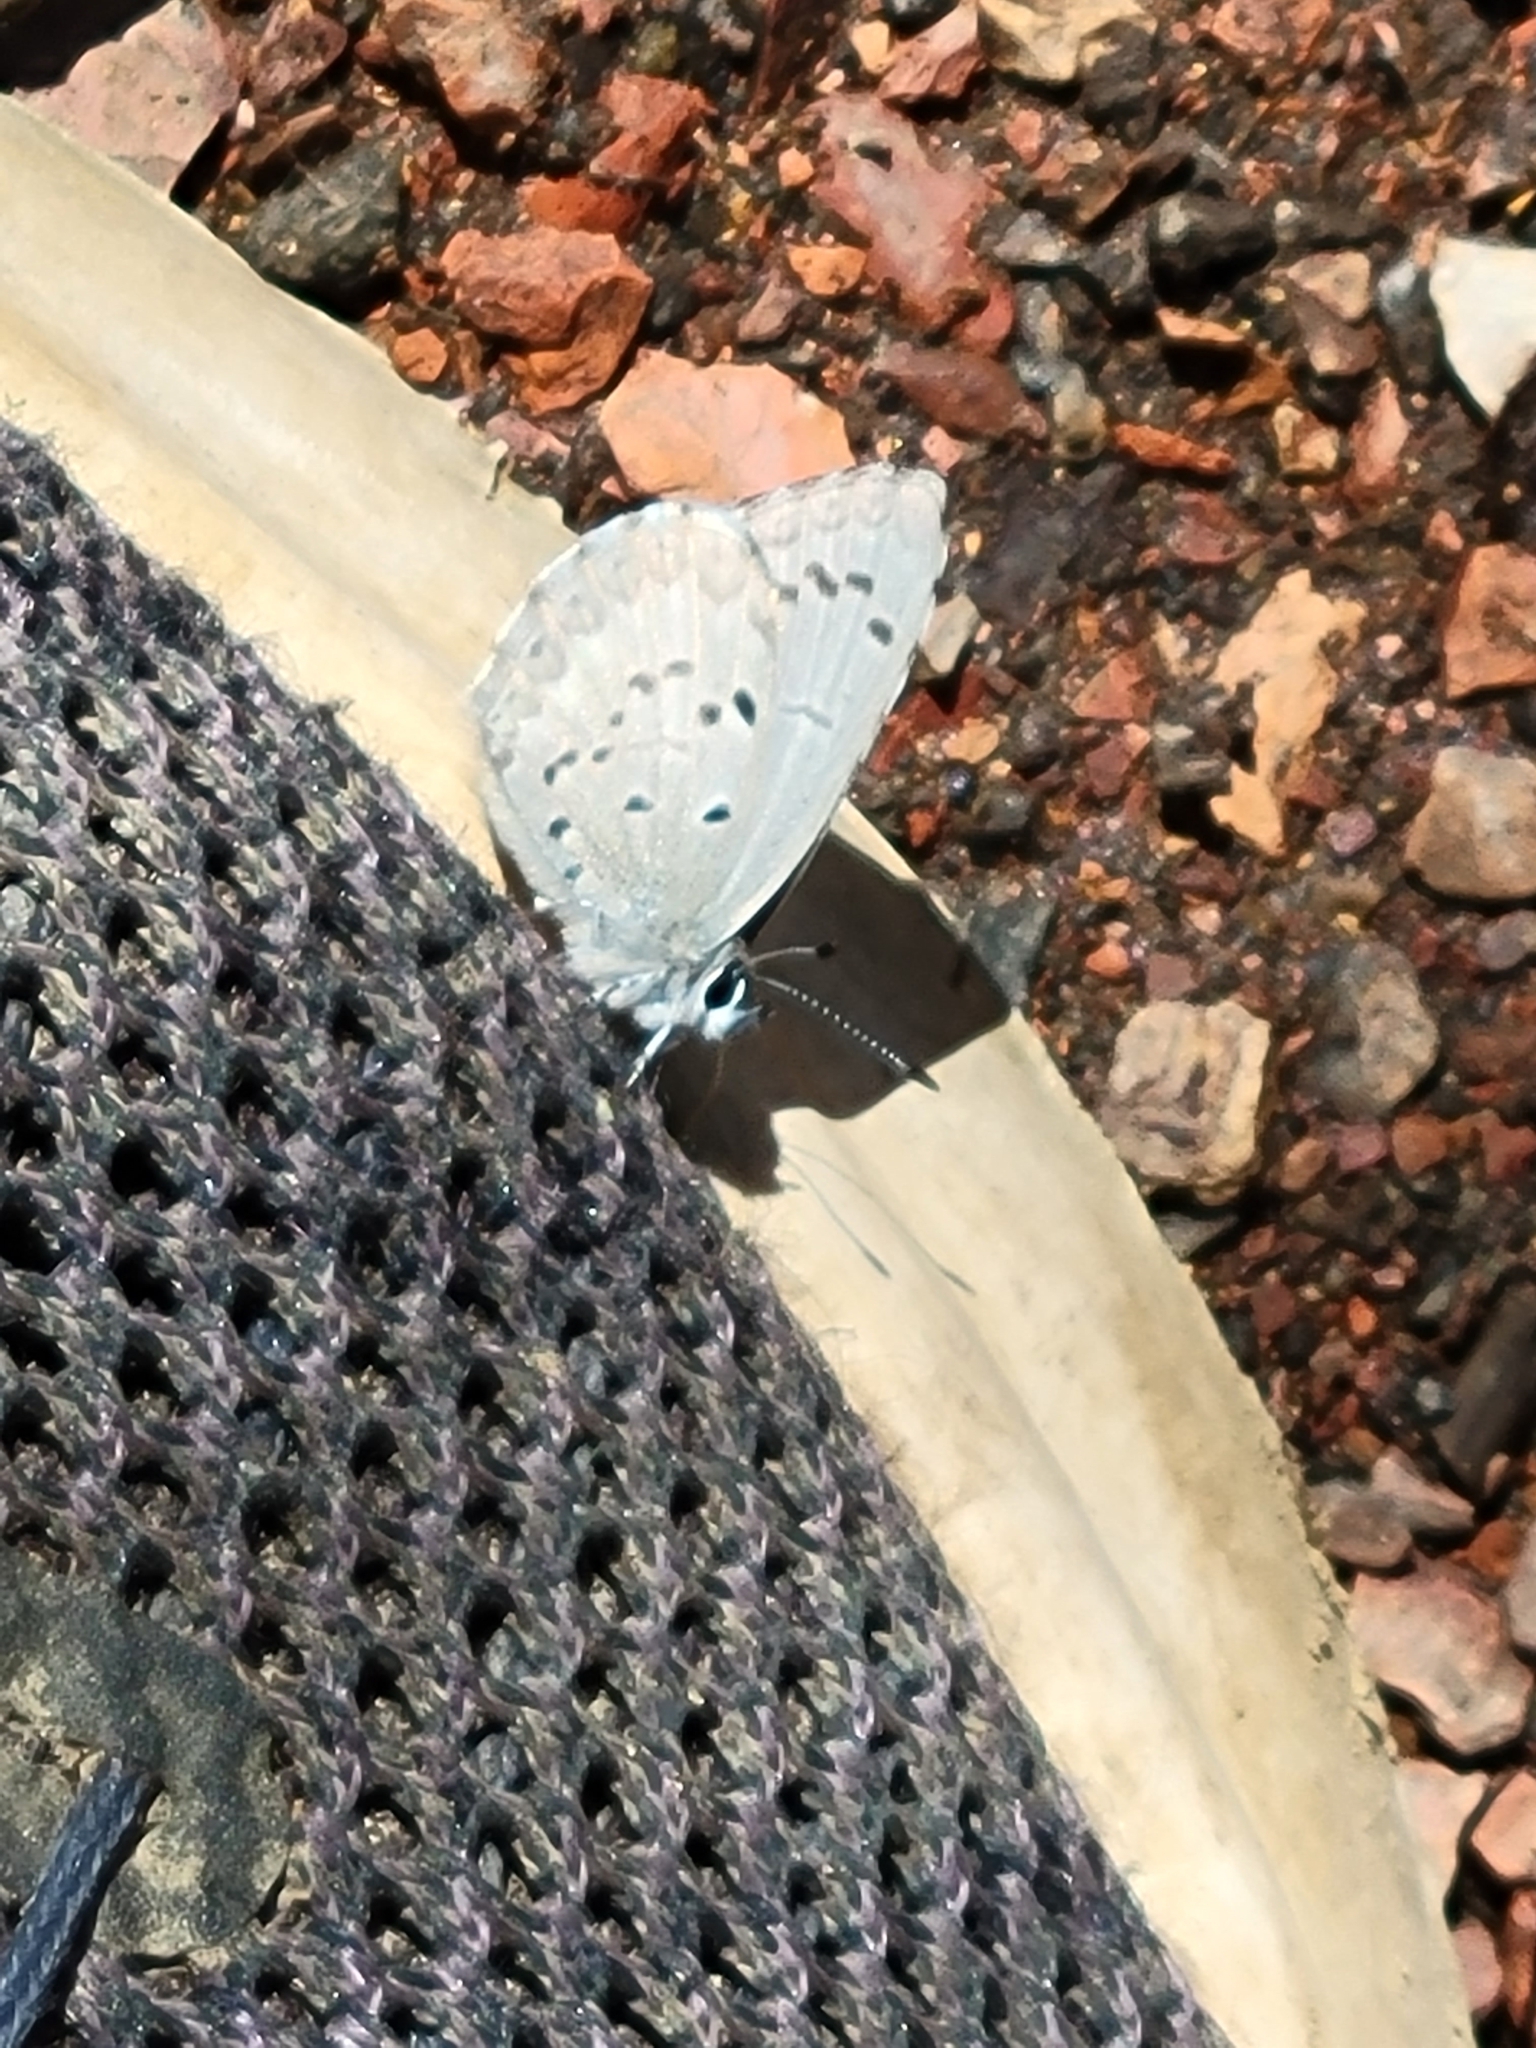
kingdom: Animalia
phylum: Arthropoda
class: Insecta
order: Lepidoptera
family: Lycaenidae
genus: Celastrina
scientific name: Celastrina ladon
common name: Spring azure
